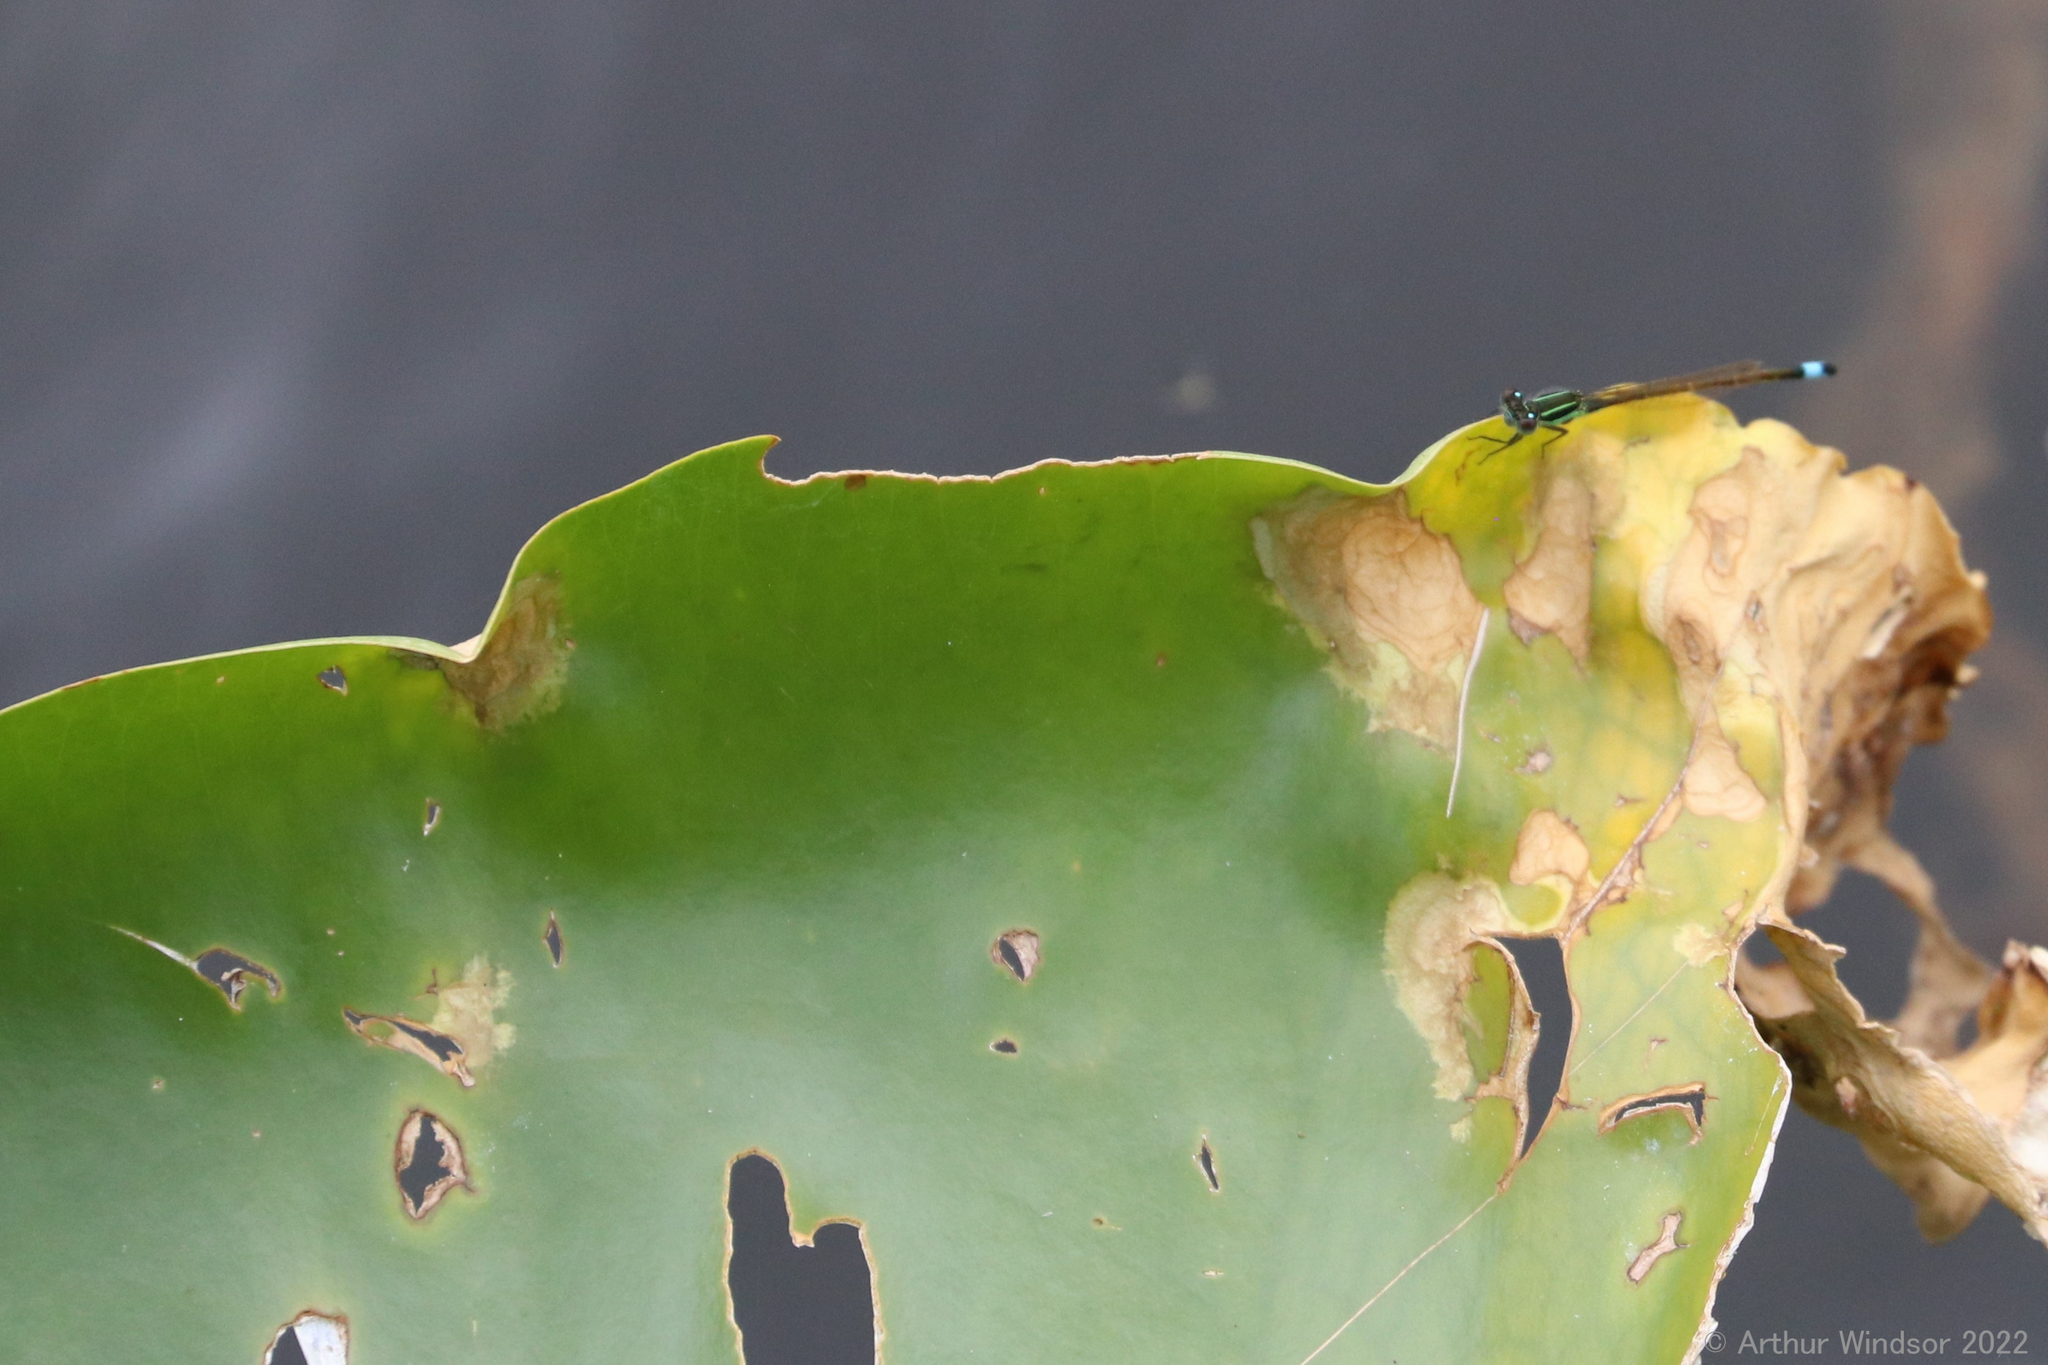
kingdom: Animalia
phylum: Arthropoda
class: Insecta
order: Odonata
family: Coenagrionidae
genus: Ischnura
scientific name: Ischnura ramburii
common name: Rambur's forktail
